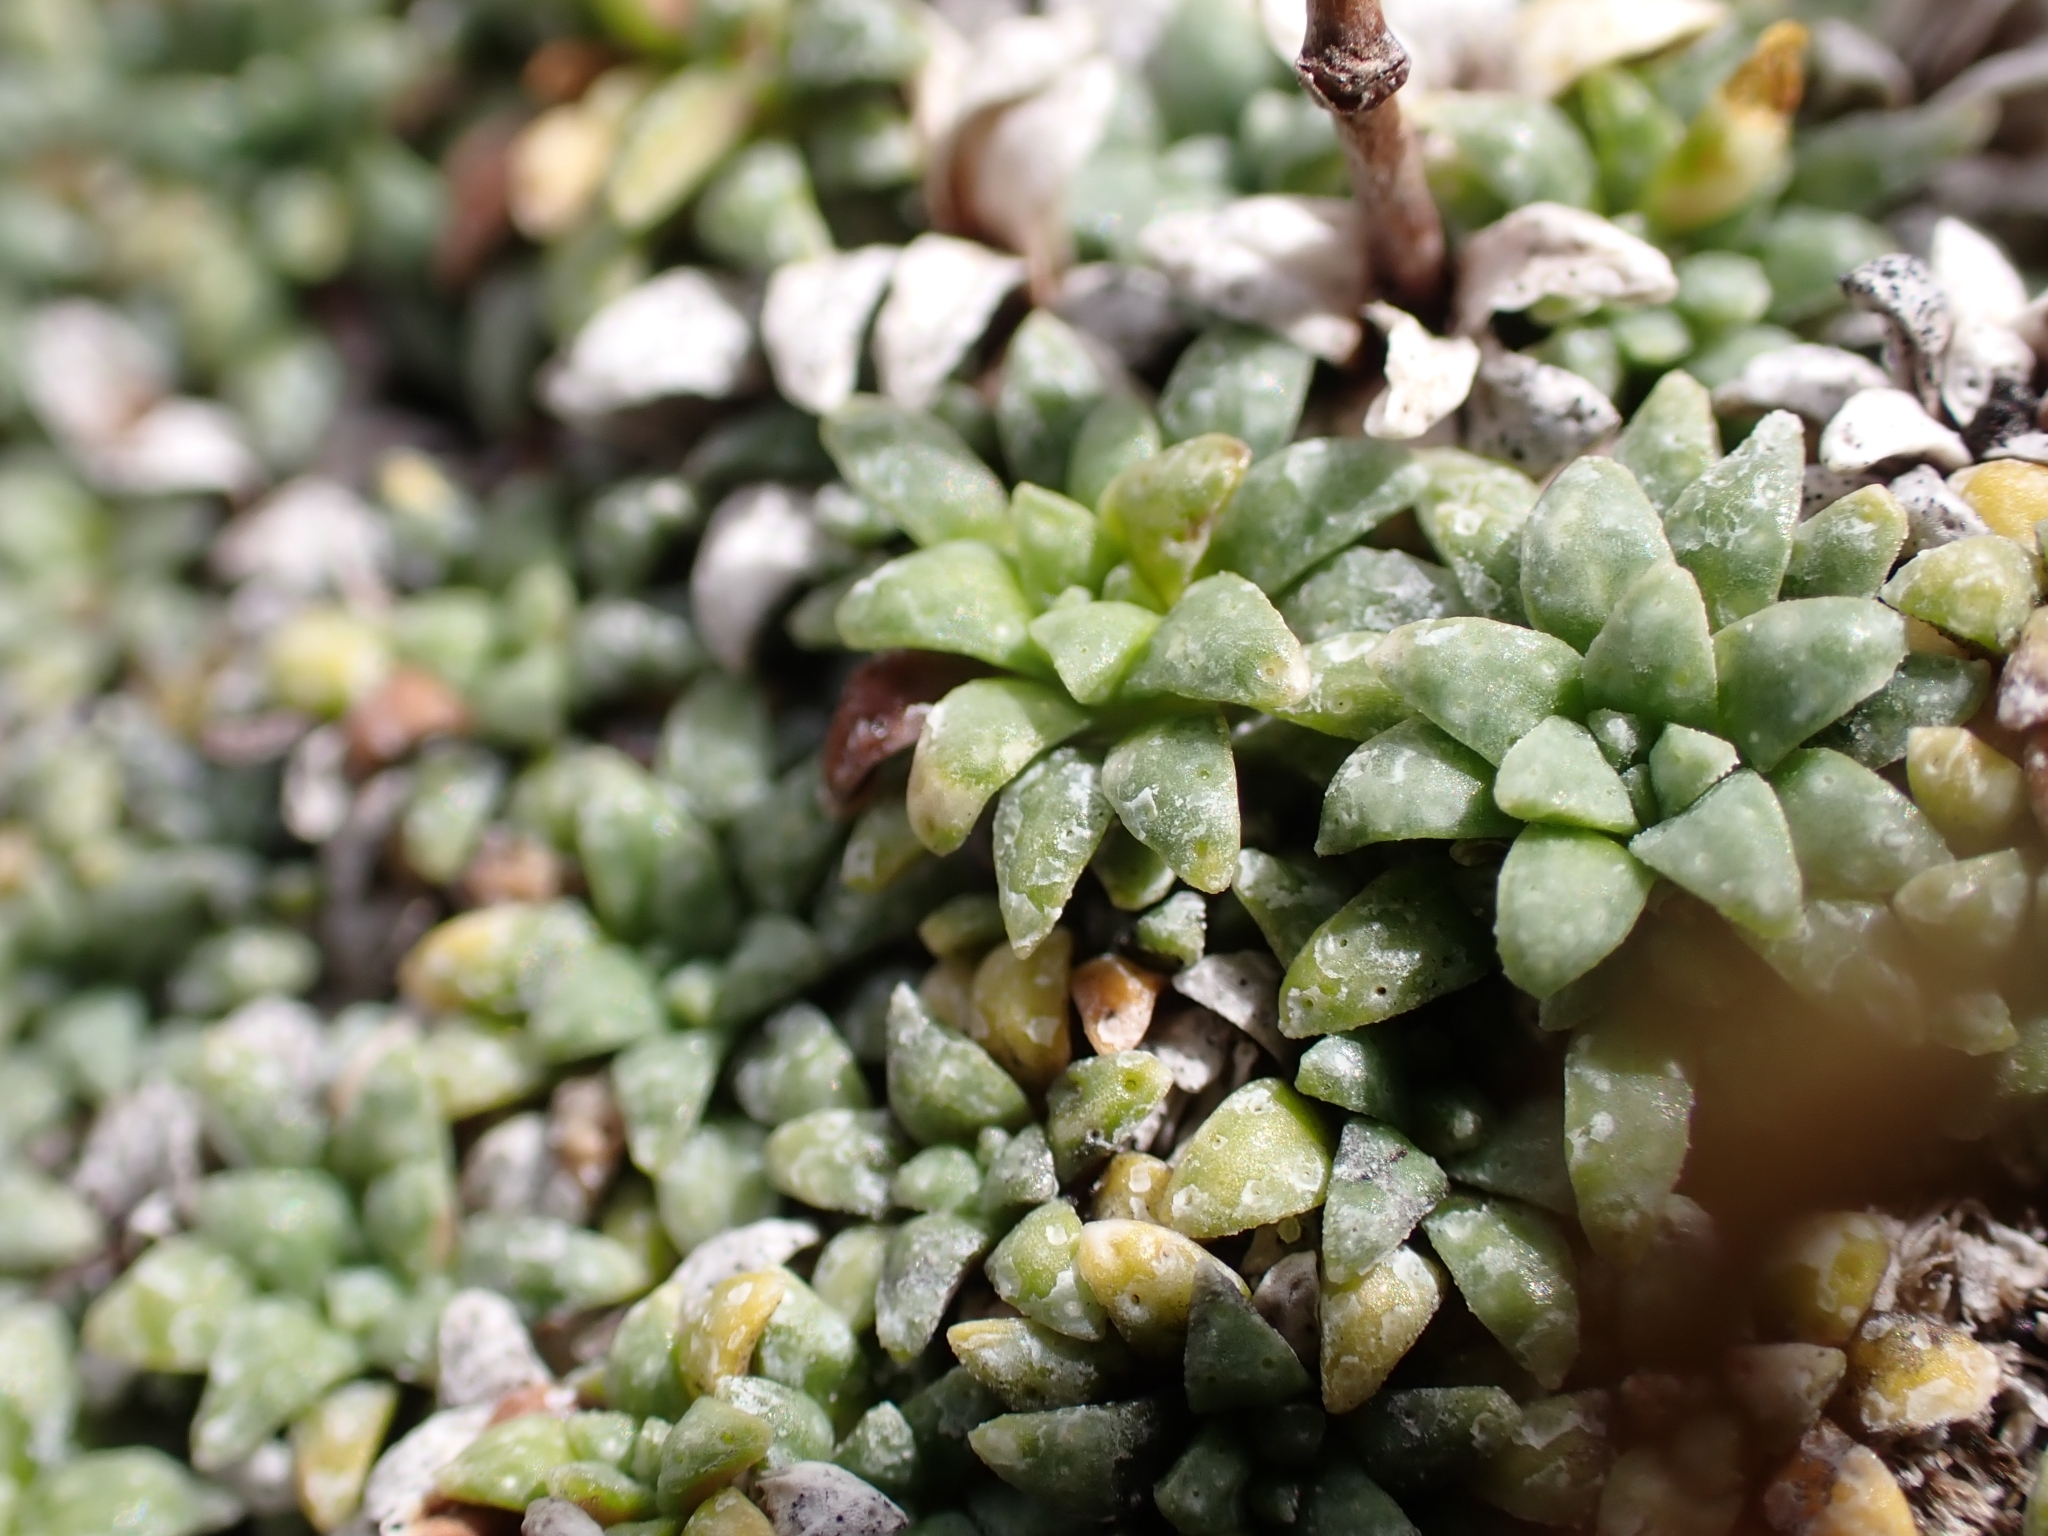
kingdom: Plantae
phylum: Tracheophyta
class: Magnoliopsida
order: Saxifragales
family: Saxifragaceae
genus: Saxifraga
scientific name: Saxifraga caesia
